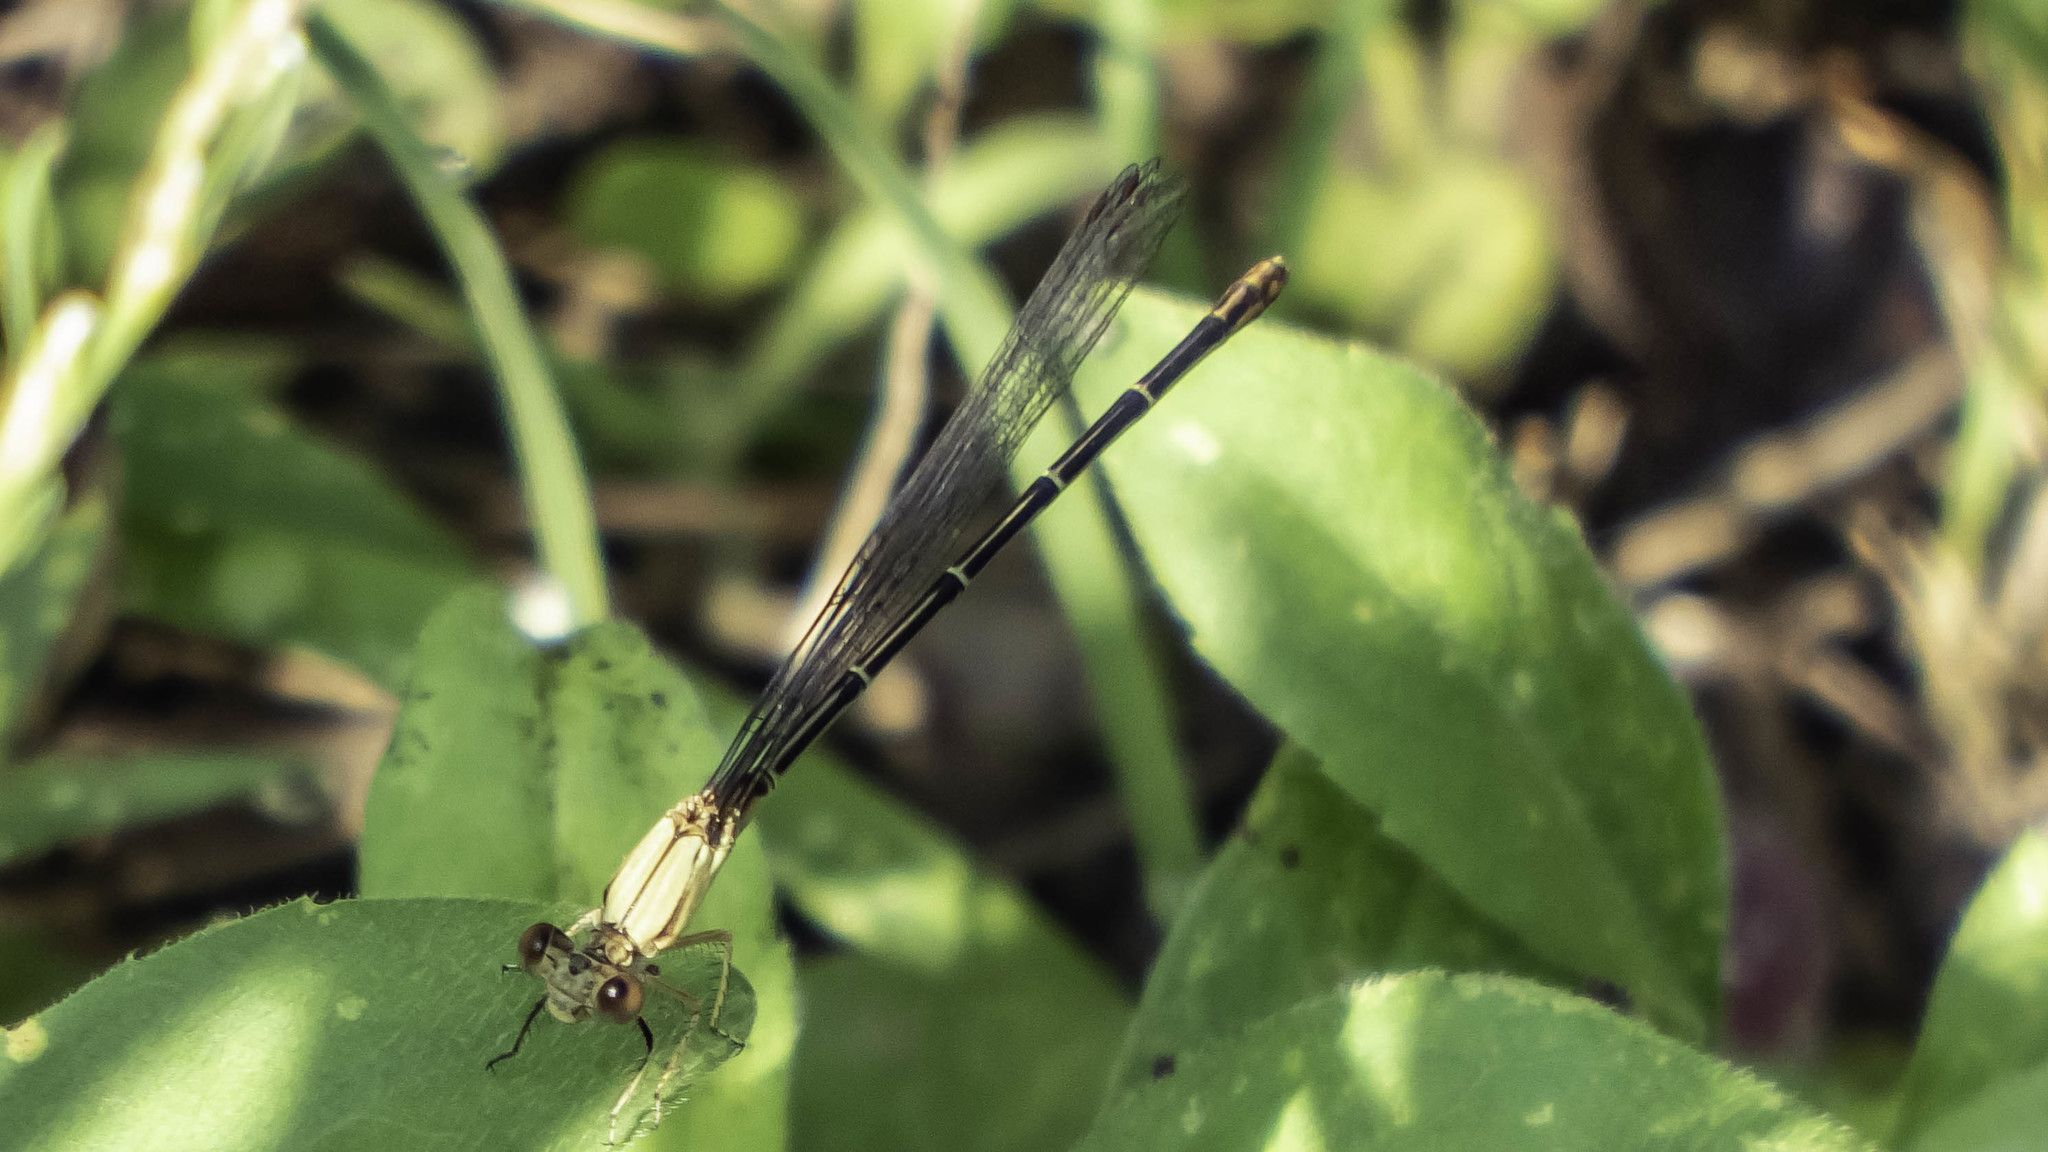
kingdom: Animalia
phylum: Arthropoda
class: Insecta
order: Odonata
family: Coenagrionidae
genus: Argia
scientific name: Argia apicalis
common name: Blue-fronted dancer
